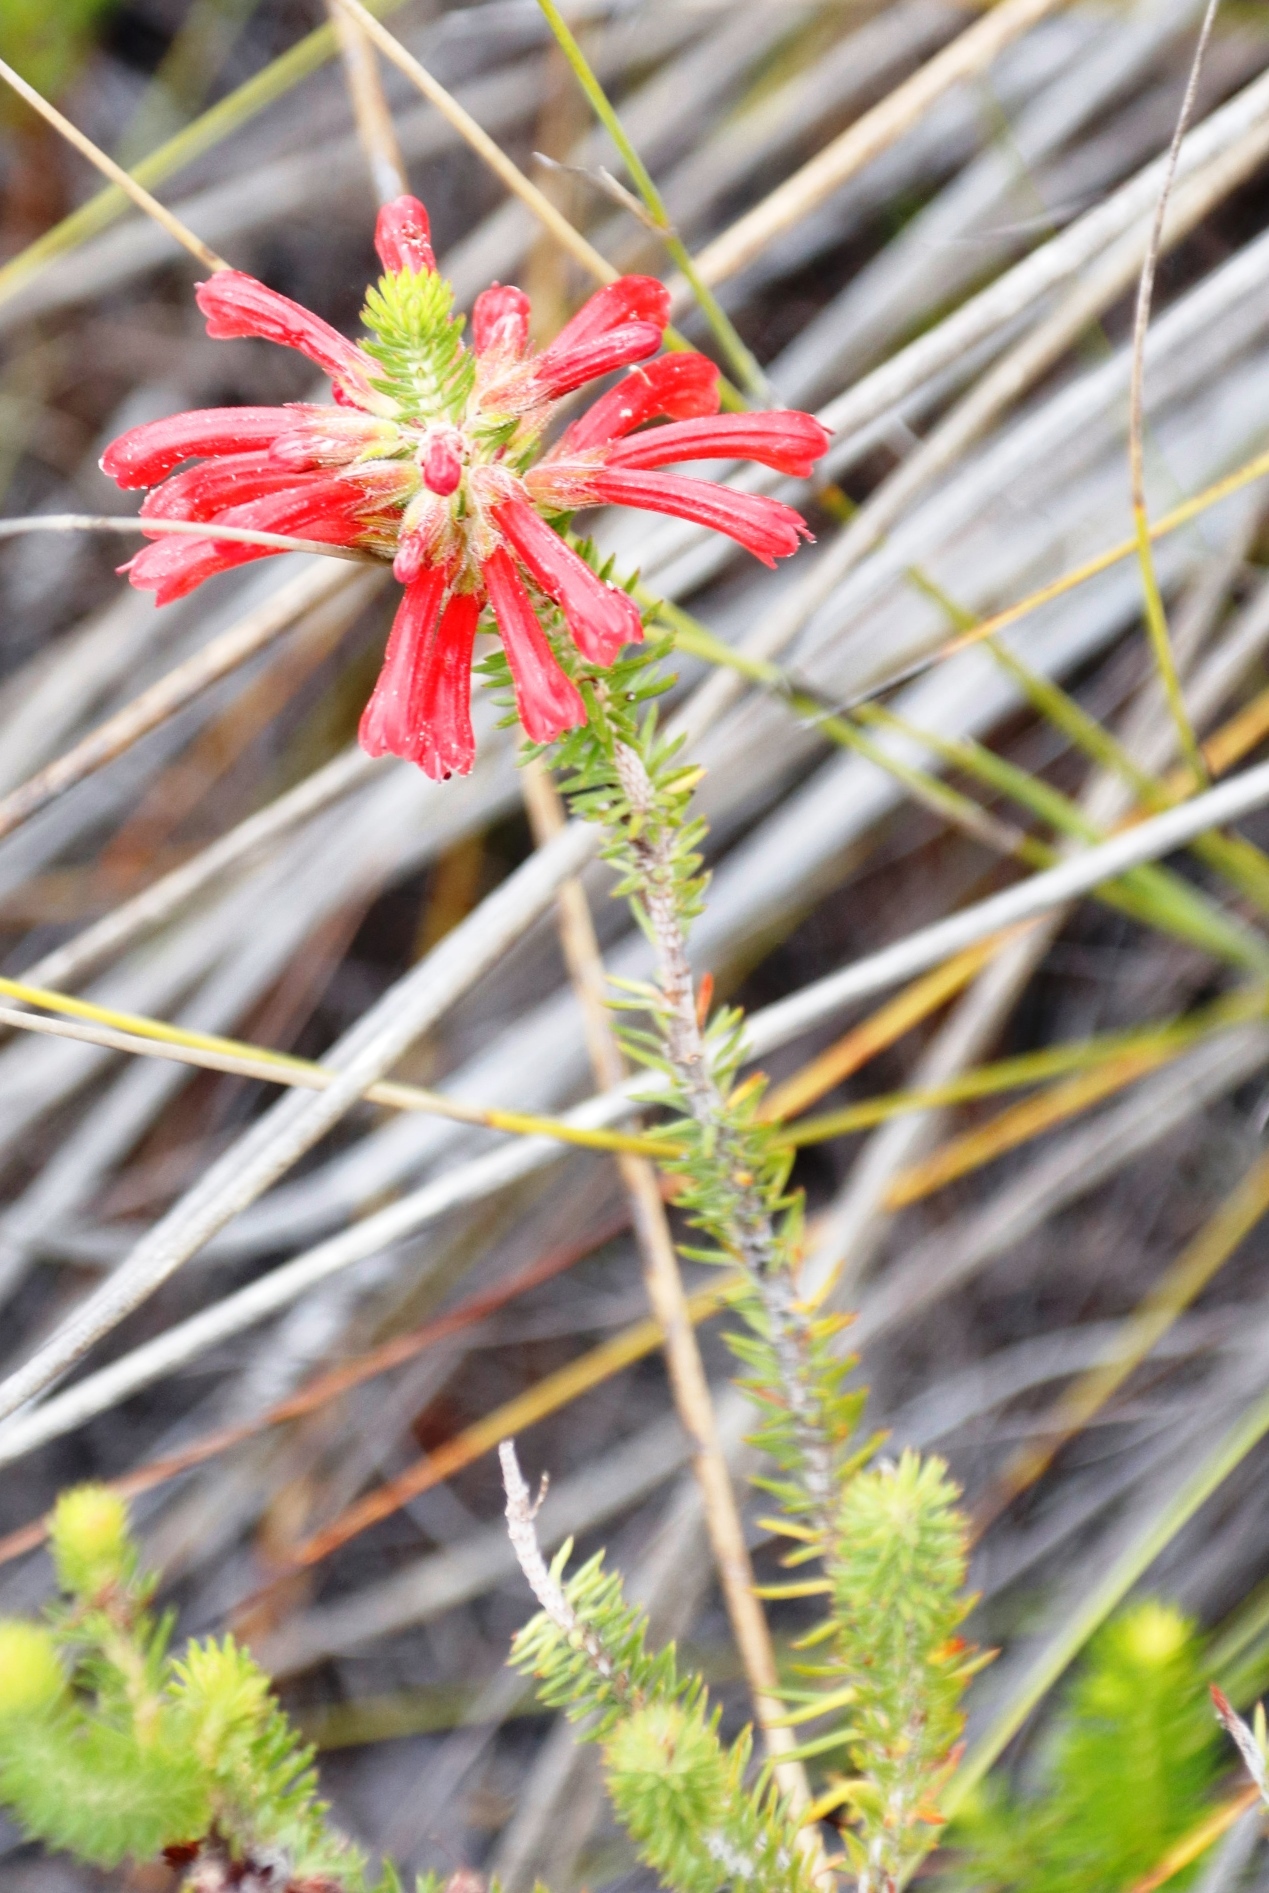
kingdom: Plantae
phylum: Tracheophyta
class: Magnoliopsida
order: Ericales
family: Ericaceae
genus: Erica
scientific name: Erica abietina
